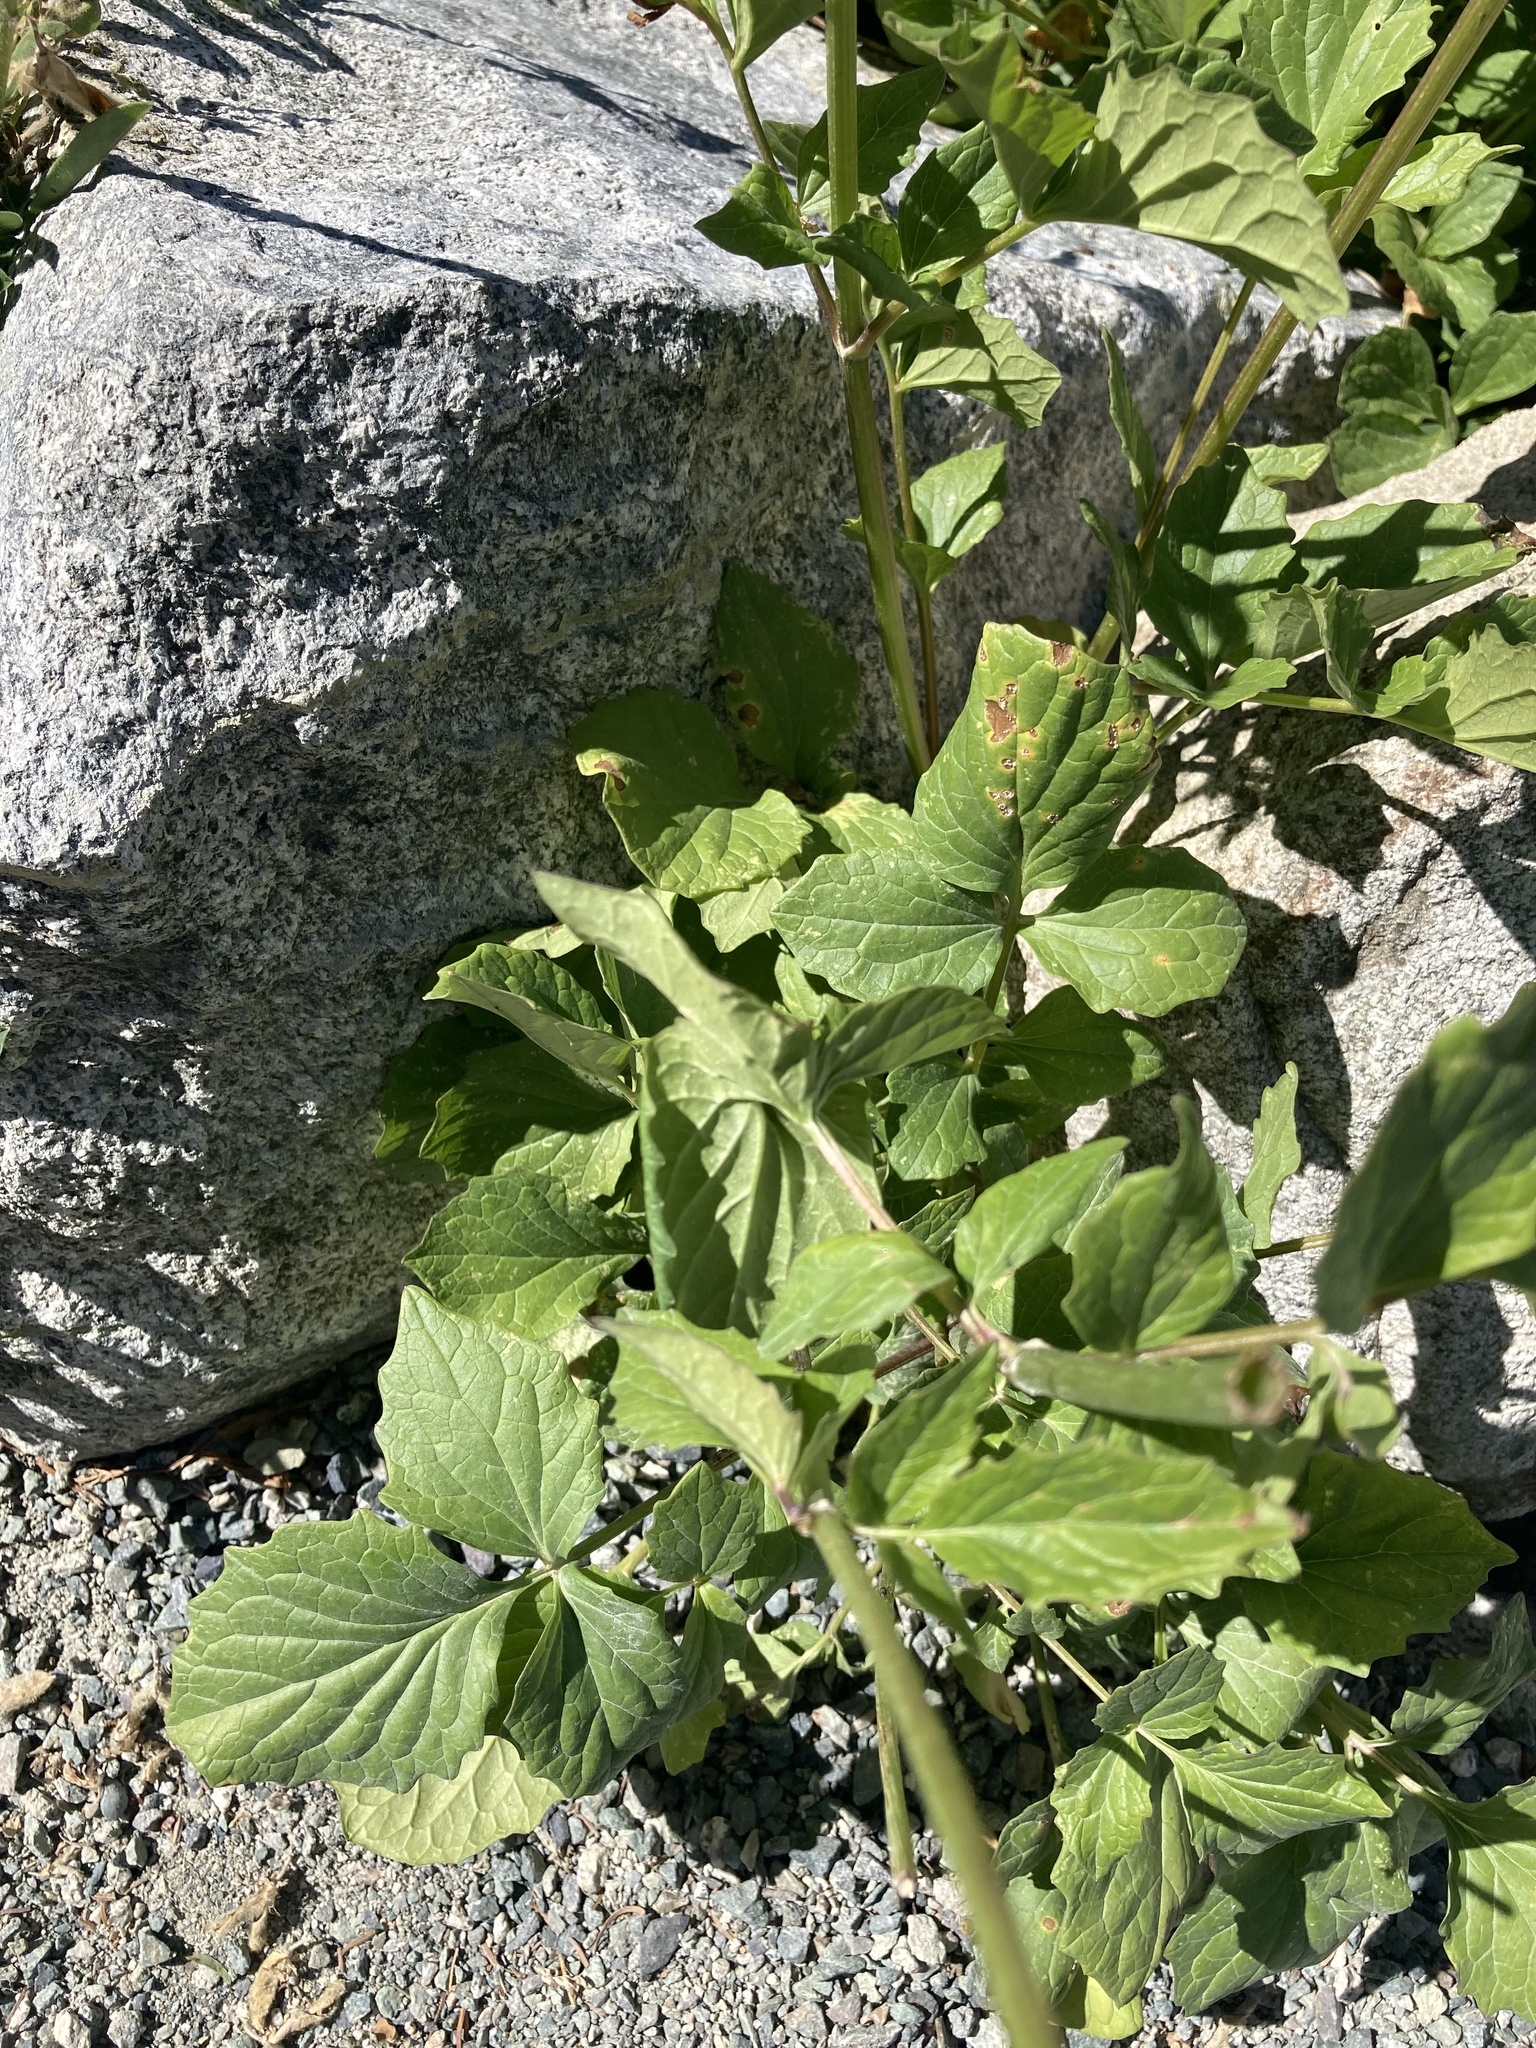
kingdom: Plantae
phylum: Tracheophyta
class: Magnoliopsida
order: Dipsacales
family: Caprifoliaceae
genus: Valeriana
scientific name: Valeriana sitchensis
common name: Pacific valerian
